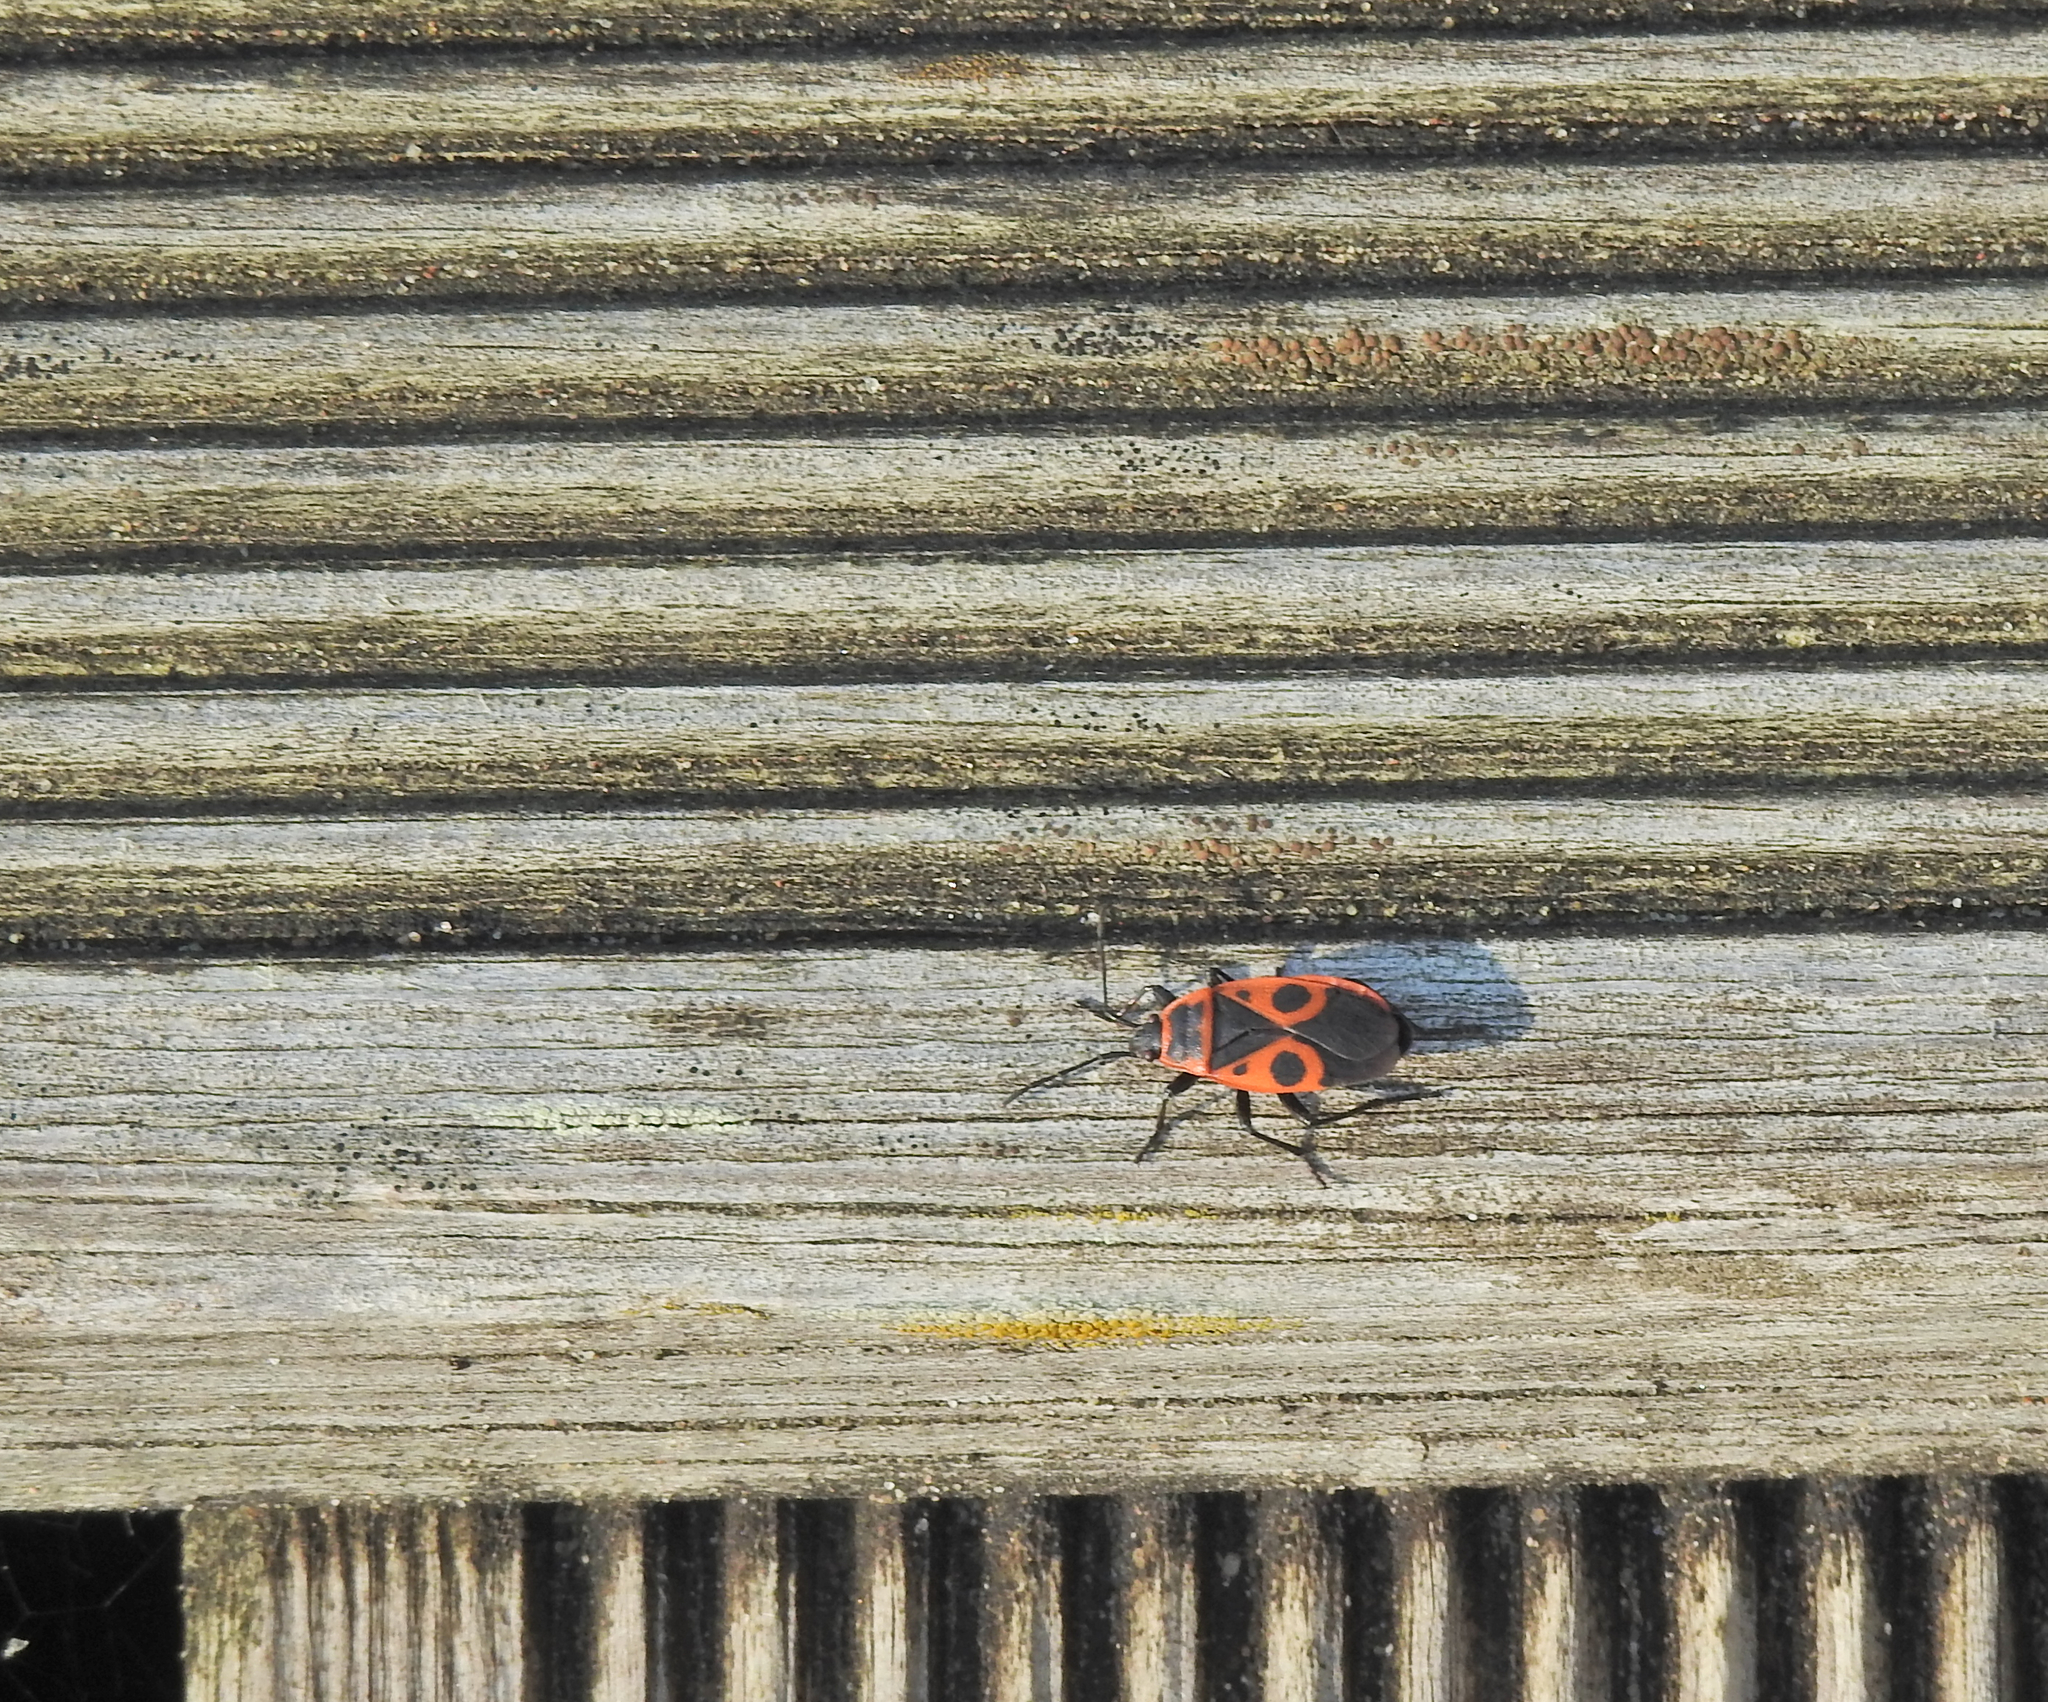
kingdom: Animalia
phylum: Arthropoda
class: Insecta
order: Hemiptera
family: Pyrrhocoridae
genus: Pyrrhocoris
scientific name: Pyrrhocoris apterus
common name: Firebug
